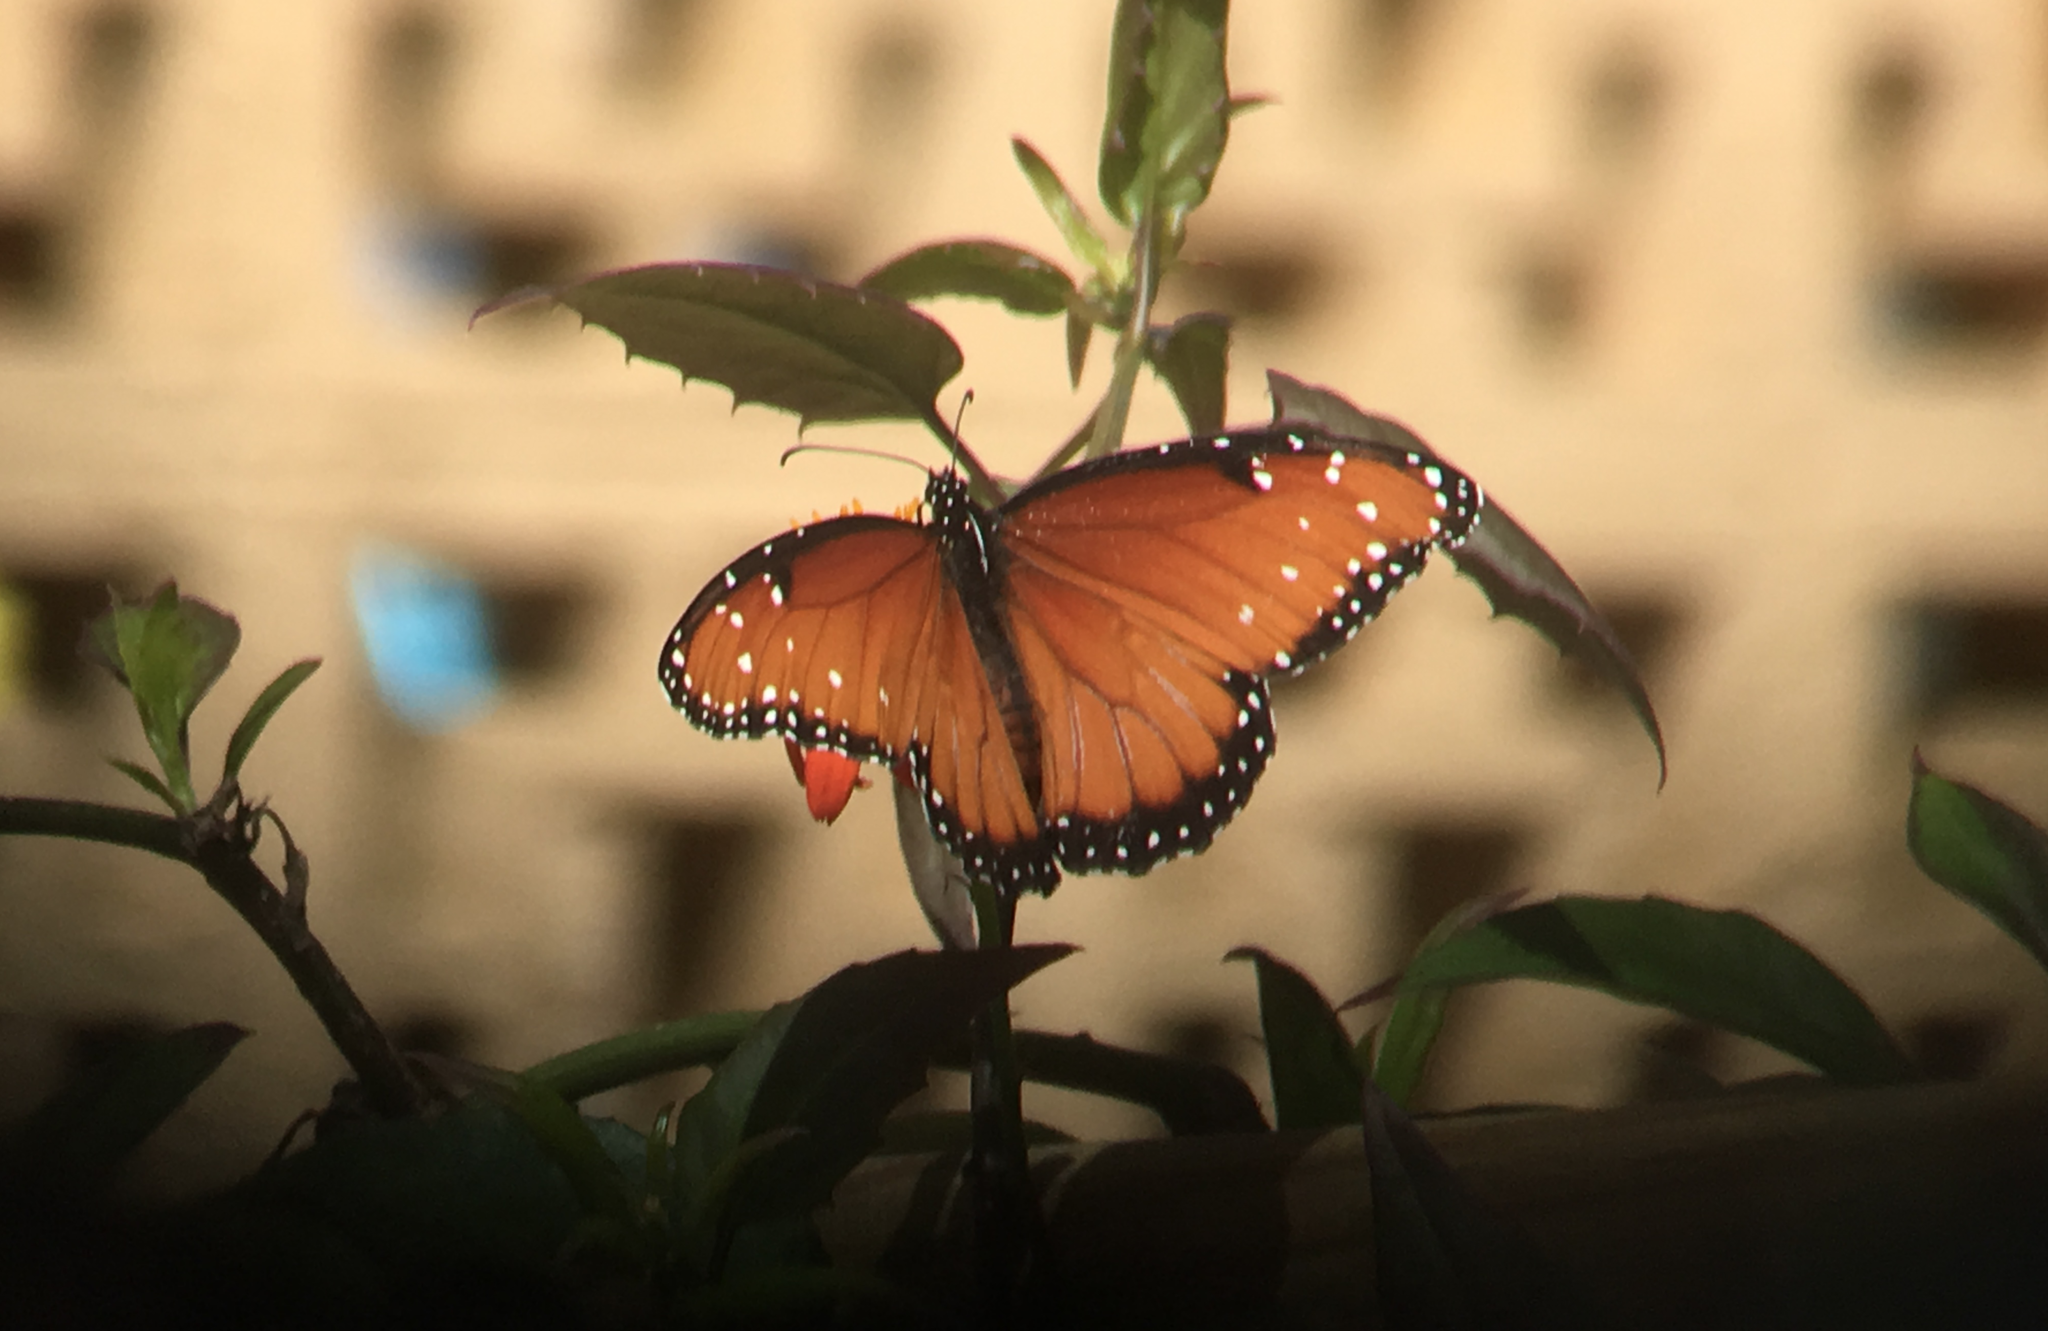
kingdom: Animalia
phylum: Arthropoda
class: Insecta
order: Lepidoptera
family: Nymphalidae
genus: Danaus
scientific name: Danaus gilippus
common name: Queen
